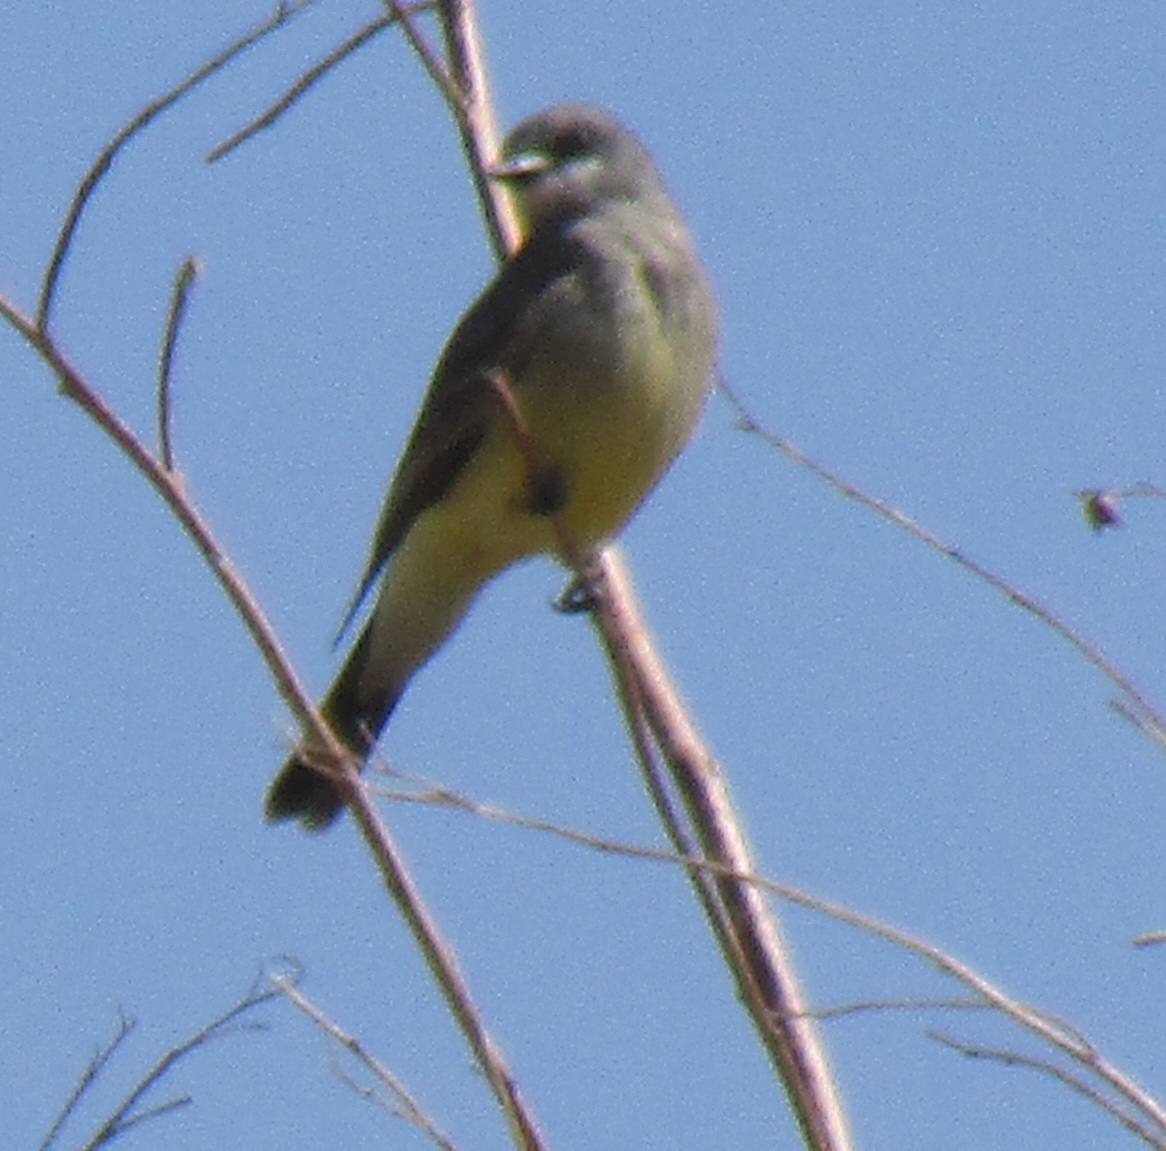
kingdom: Animalia
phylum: Chordata
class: Aves
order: Passeriformes
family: Tyrannidae
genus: Tyrannus
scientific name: Tyrannus vociferans
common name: Cassin's kingbird
